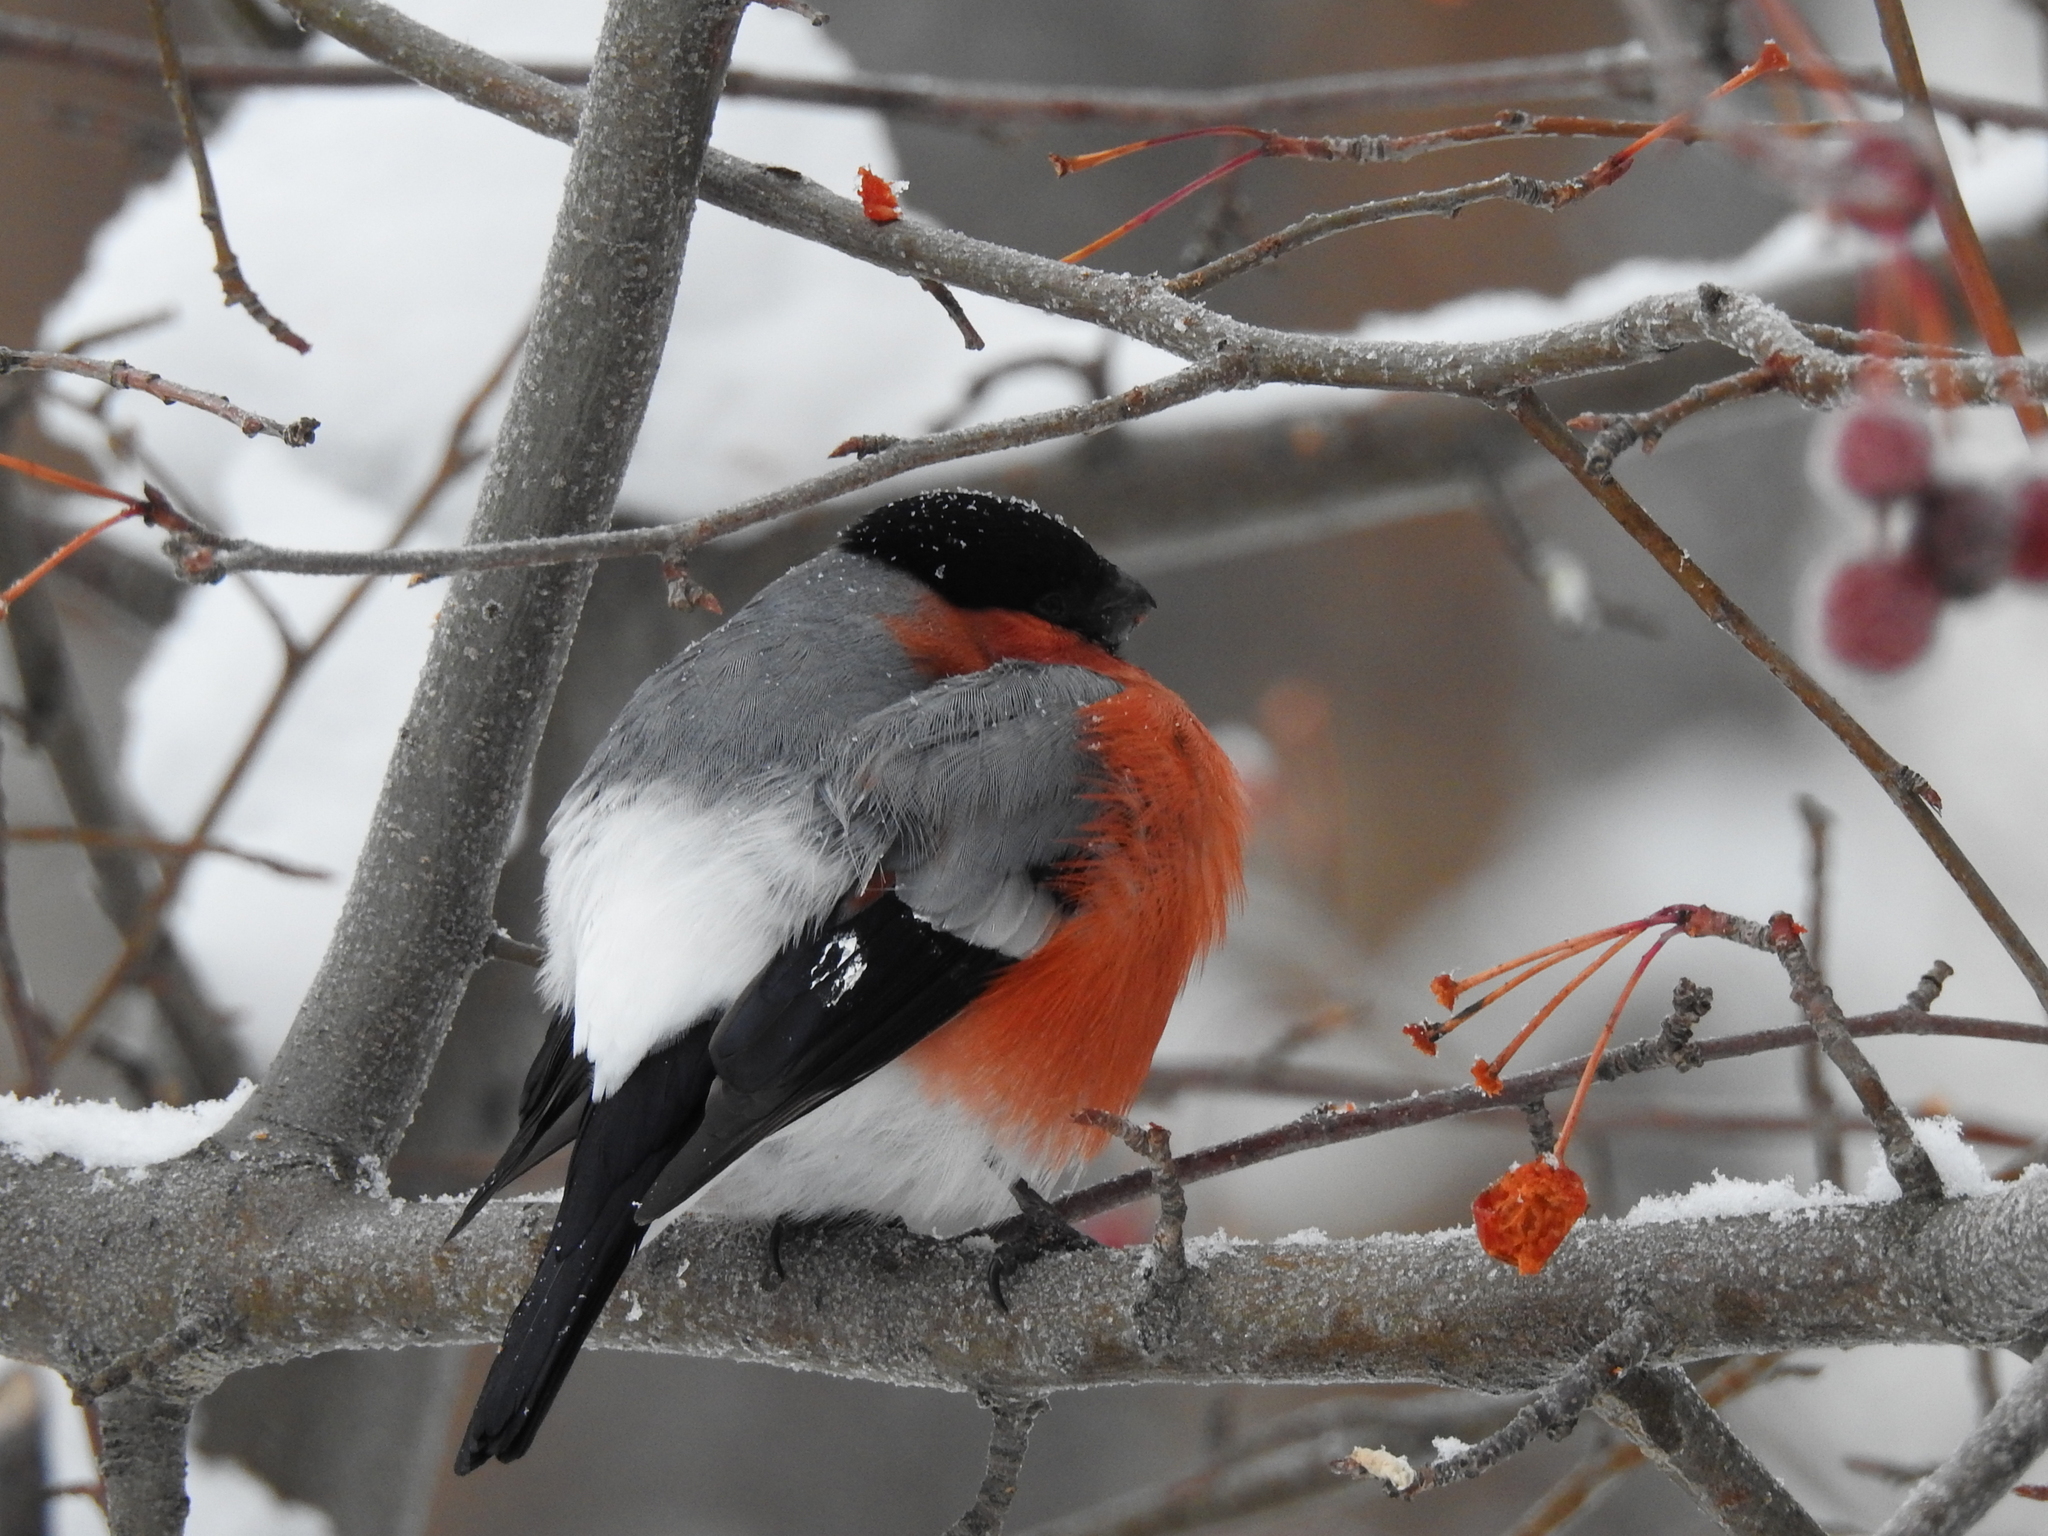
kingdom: Animalia
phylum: Chordata
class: Aves
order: Passeriformes
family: Fringillidae
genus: Pyrrhula
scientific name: Pyrrhula pyrrhula
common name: Eurasian bullfinch
